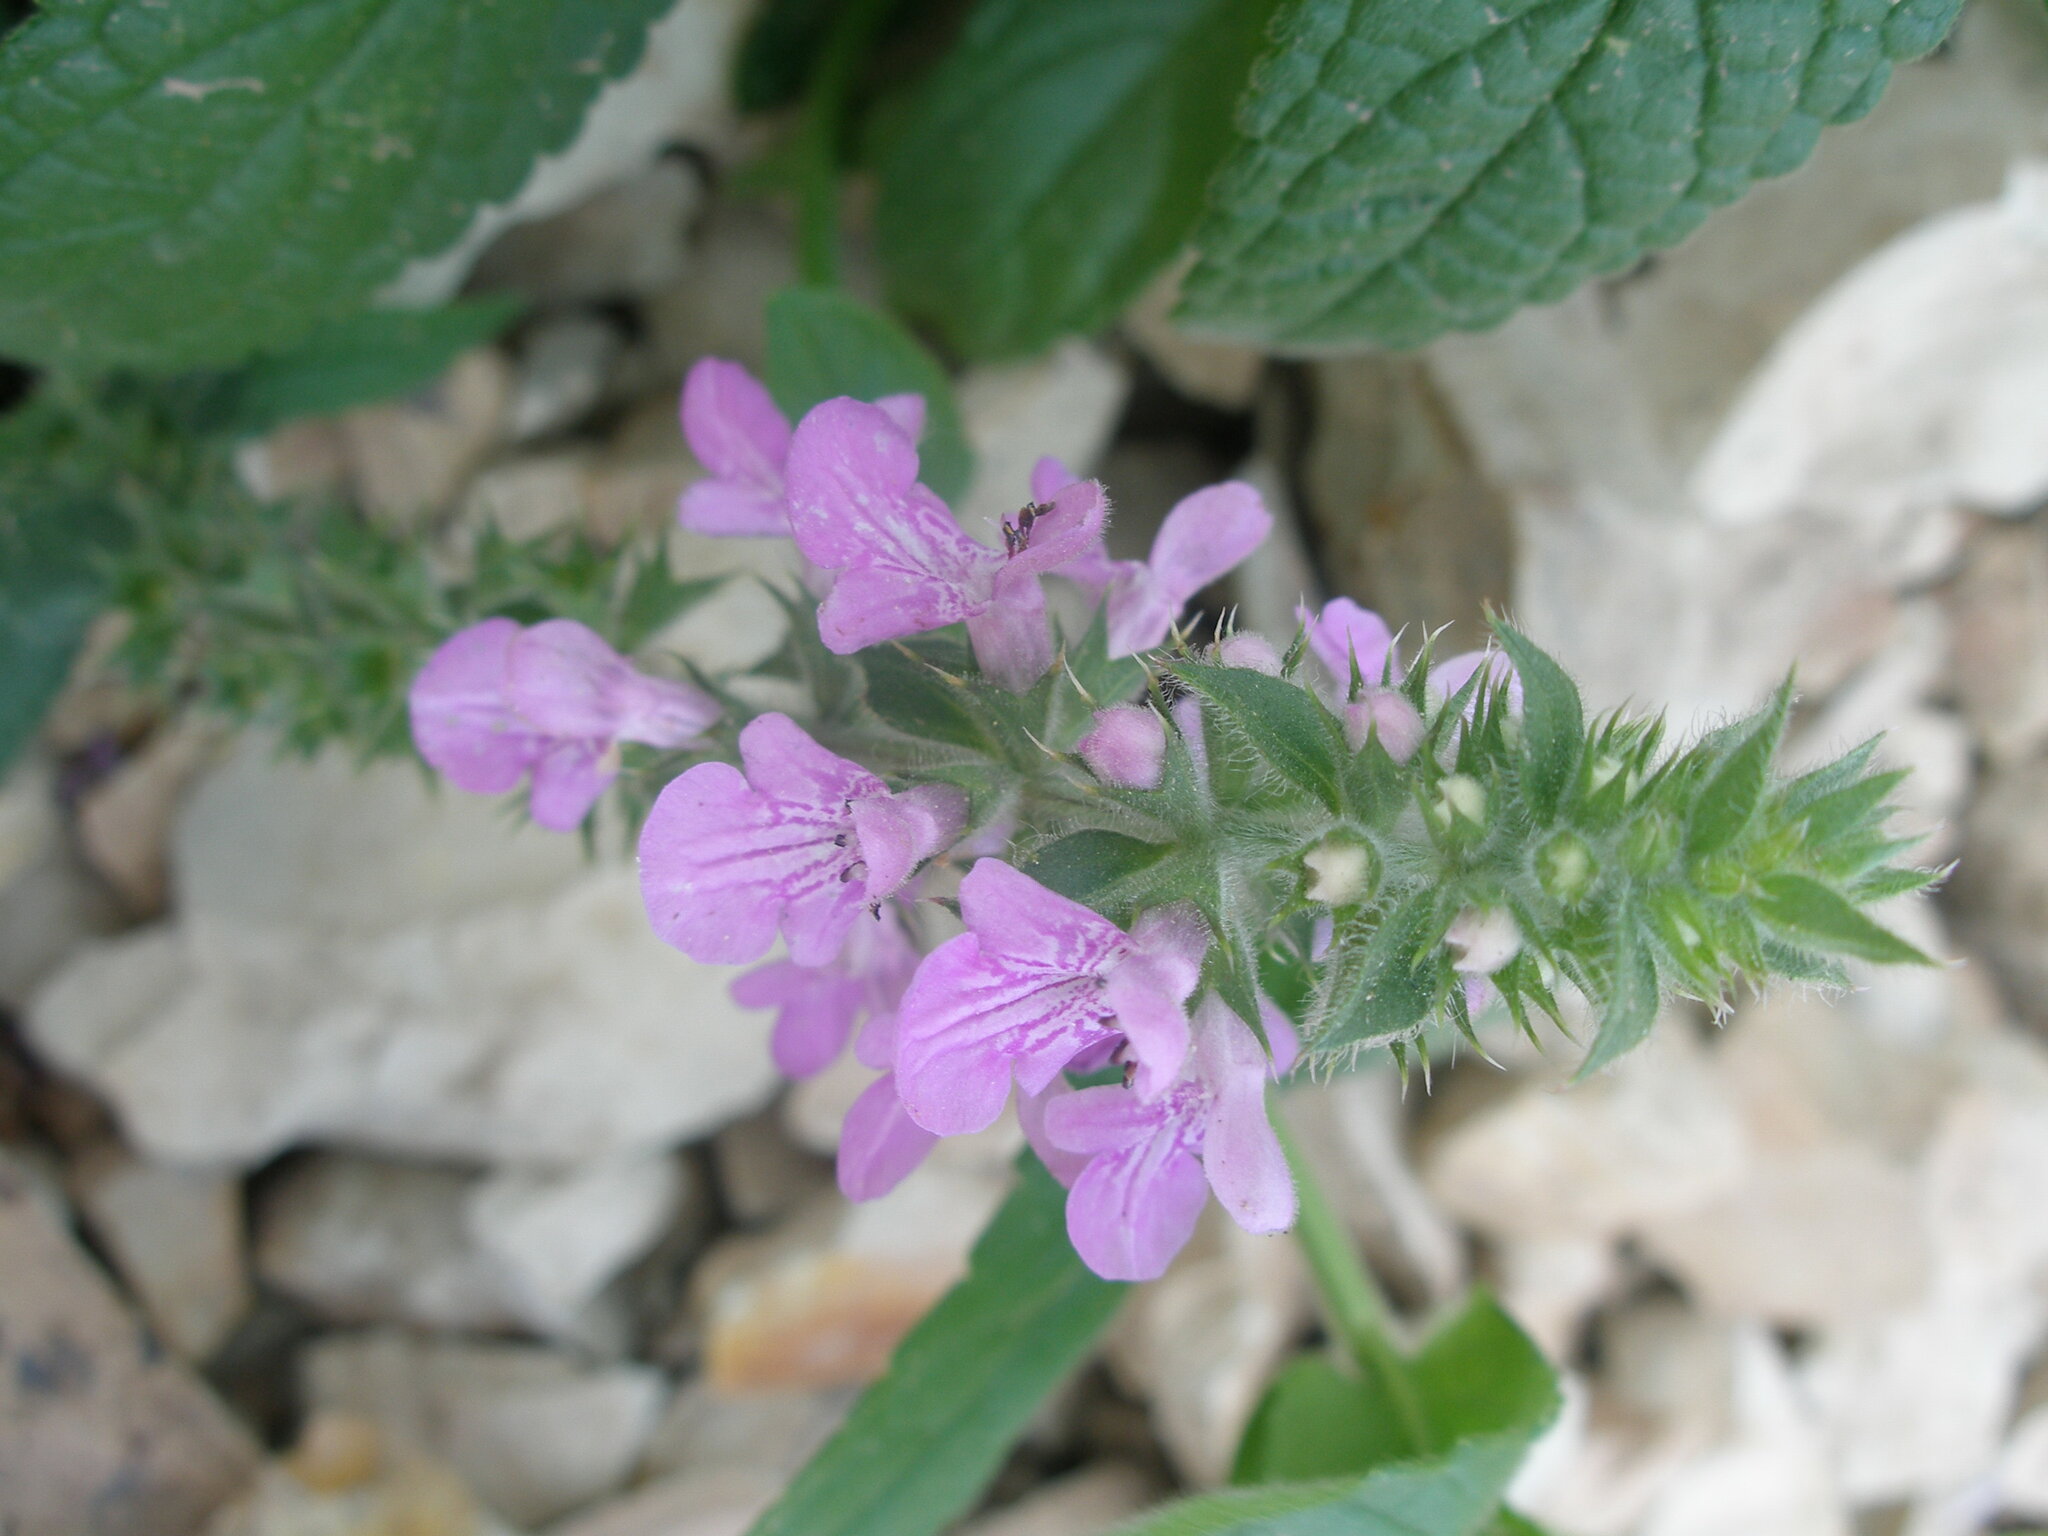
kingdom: Plantae
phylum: Tracheophyta
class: Magnoliopsida
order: Lamiales
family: Lamiaceae
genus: Stachys
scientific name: Stachys palustris
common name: Marsh woundwort
